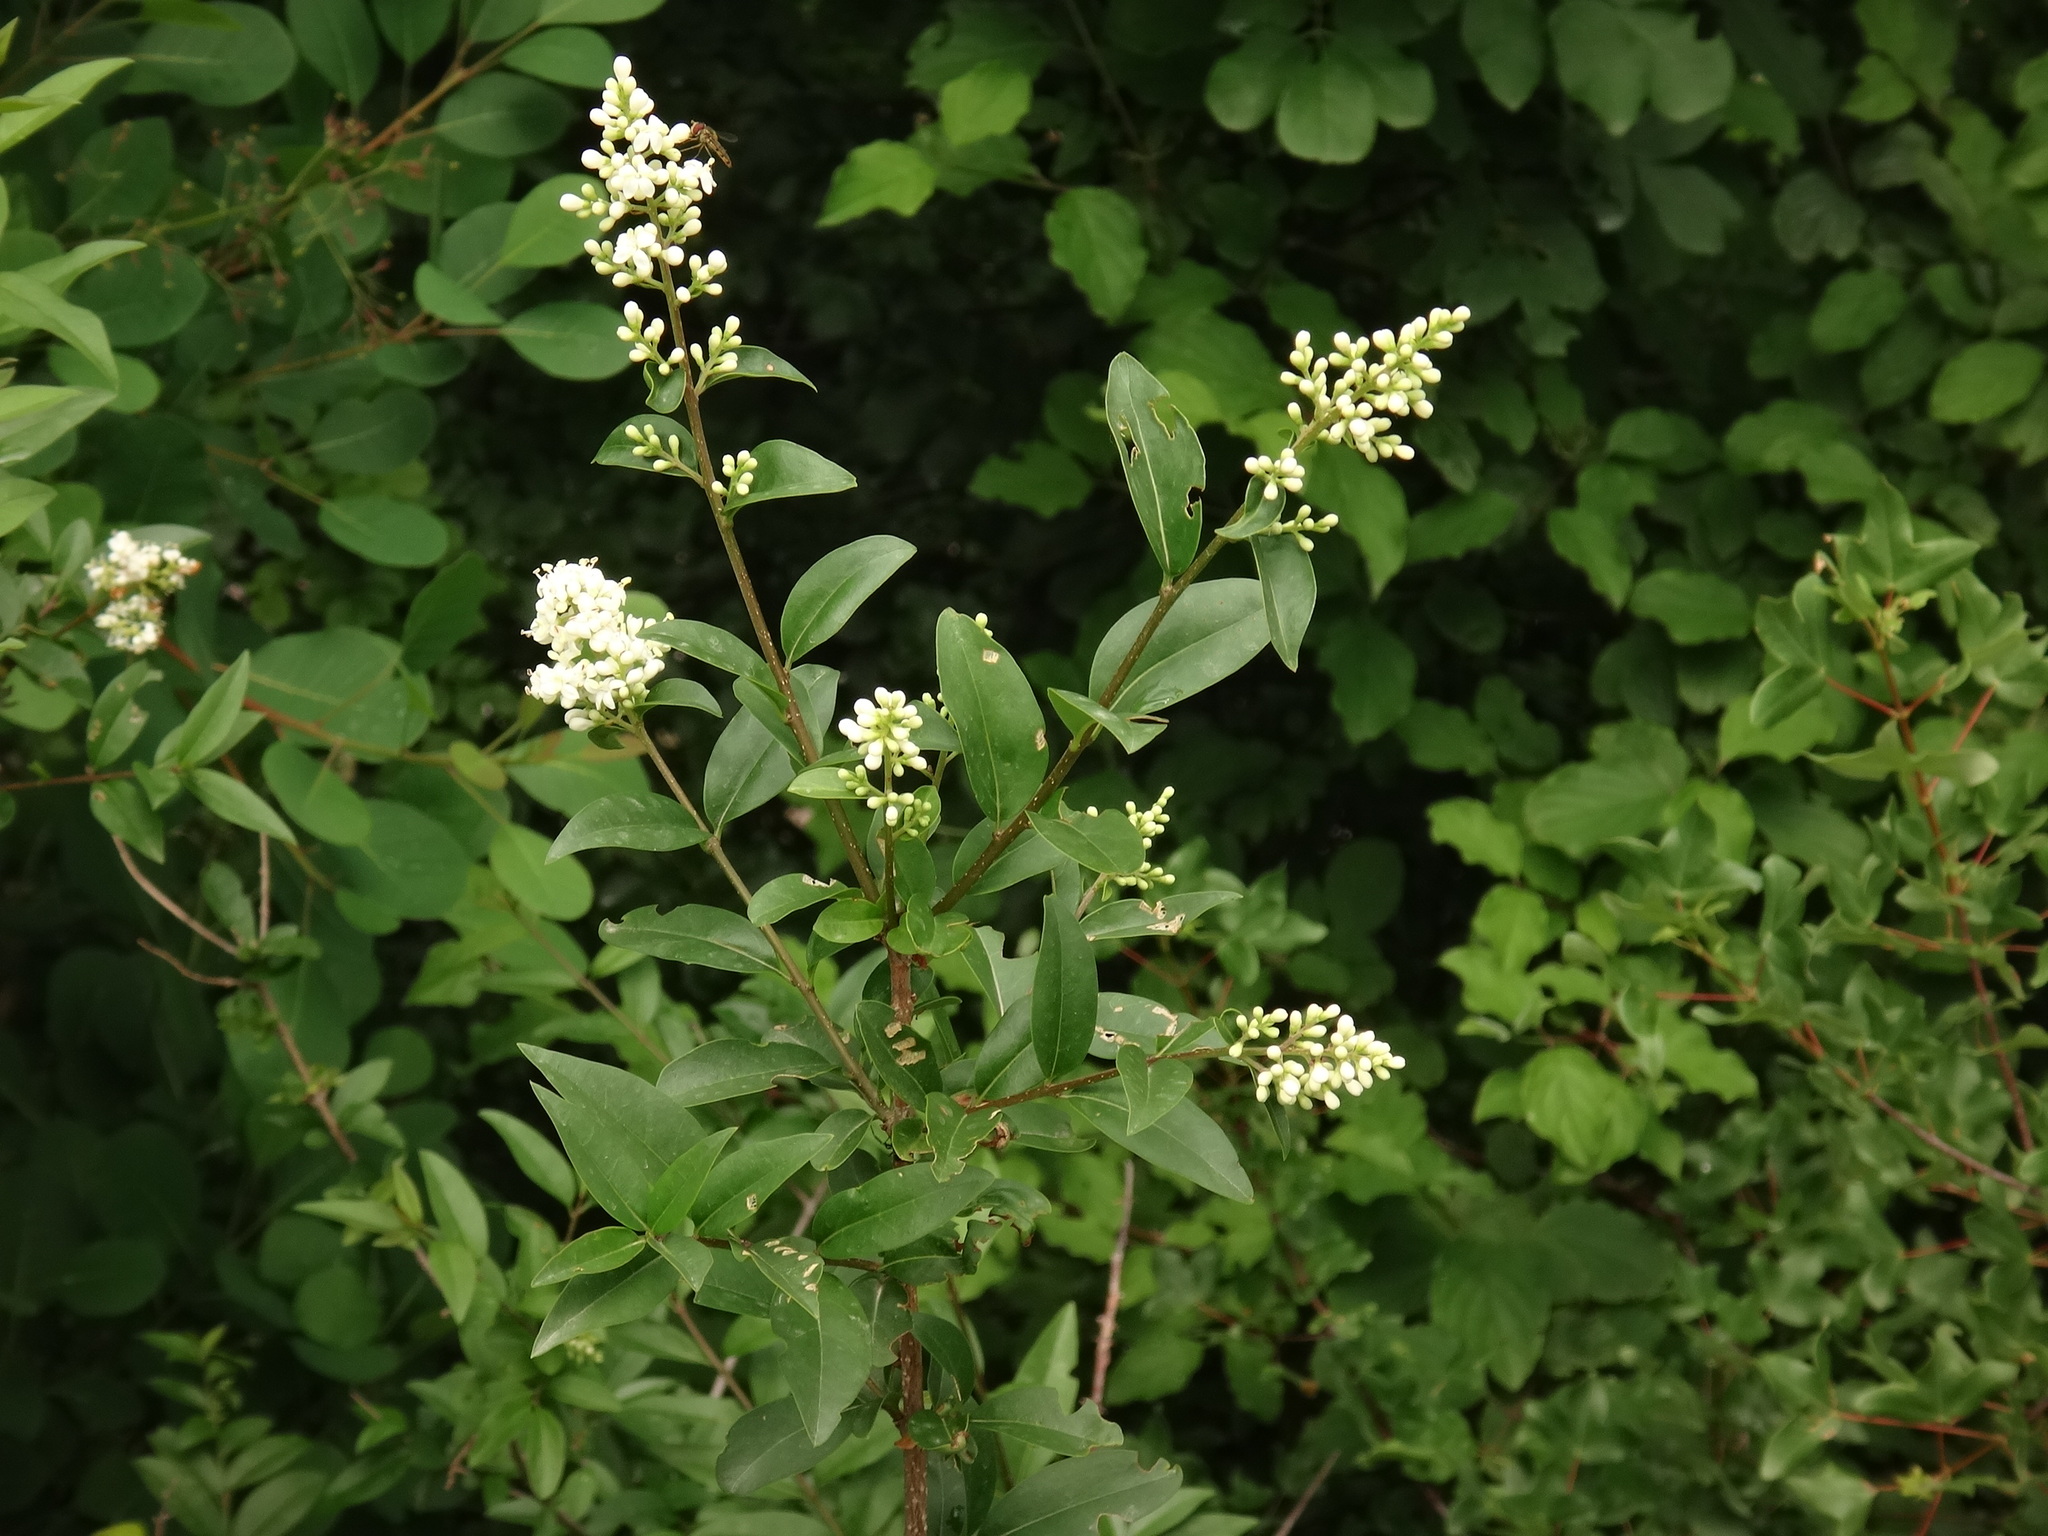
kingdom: Plantae
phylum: Tracheophyta
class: Magnoliopsida
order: Lamiales
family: Oleaceae
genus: Ligustrum
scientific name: Ligustrum vulgare
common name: Wild privet
